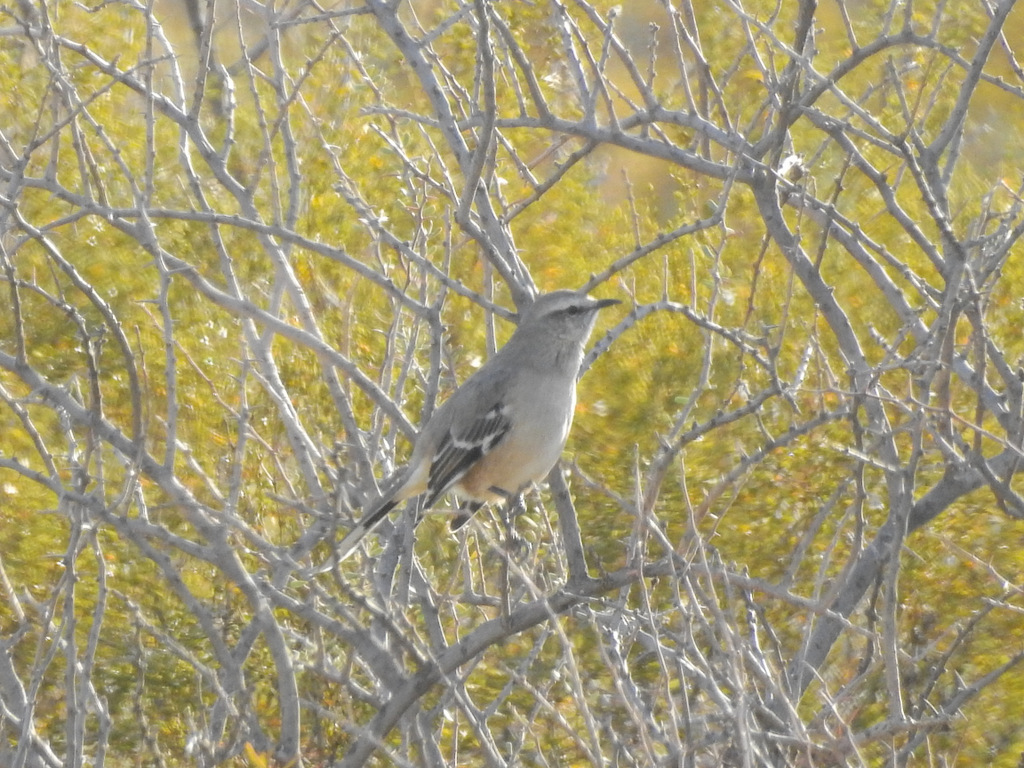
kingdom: Animalia
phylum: Chordata
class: Aves
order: Passeriformes
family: Mimidae
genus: Mimus
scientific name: Mimus patagonicus
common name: Patagonian mockingbird
